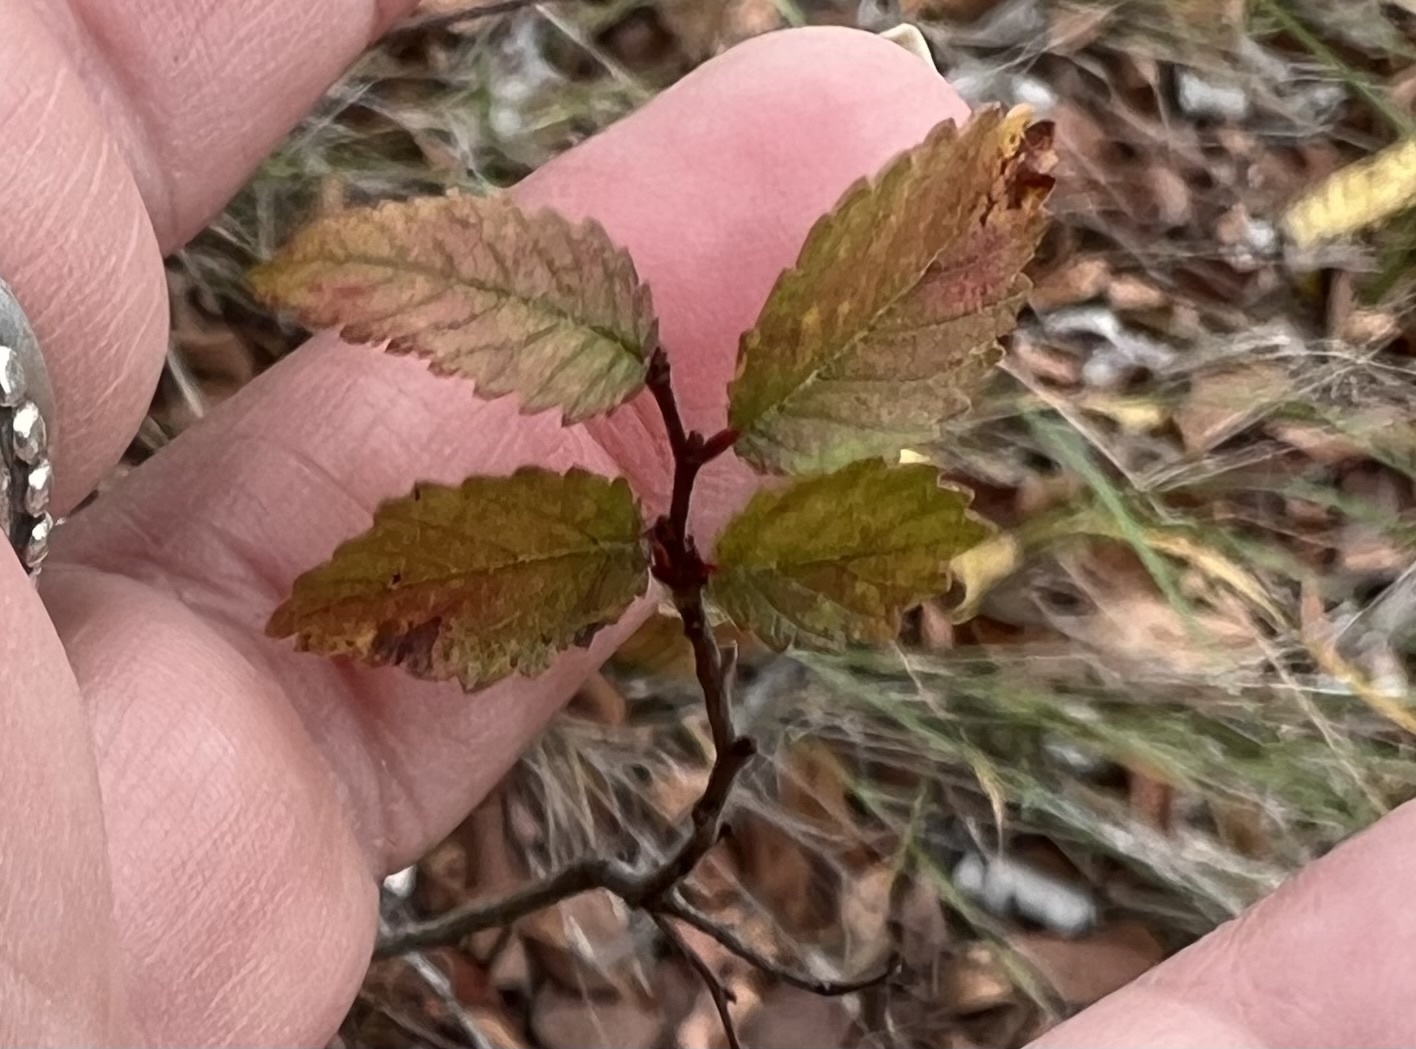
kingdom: Plantae
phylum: Tracheophyta
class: Magnoliopsida
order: Rosales
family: Ulmaceae
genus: Ulmus
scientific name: Ulmus crassifolia
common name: Basket elm
